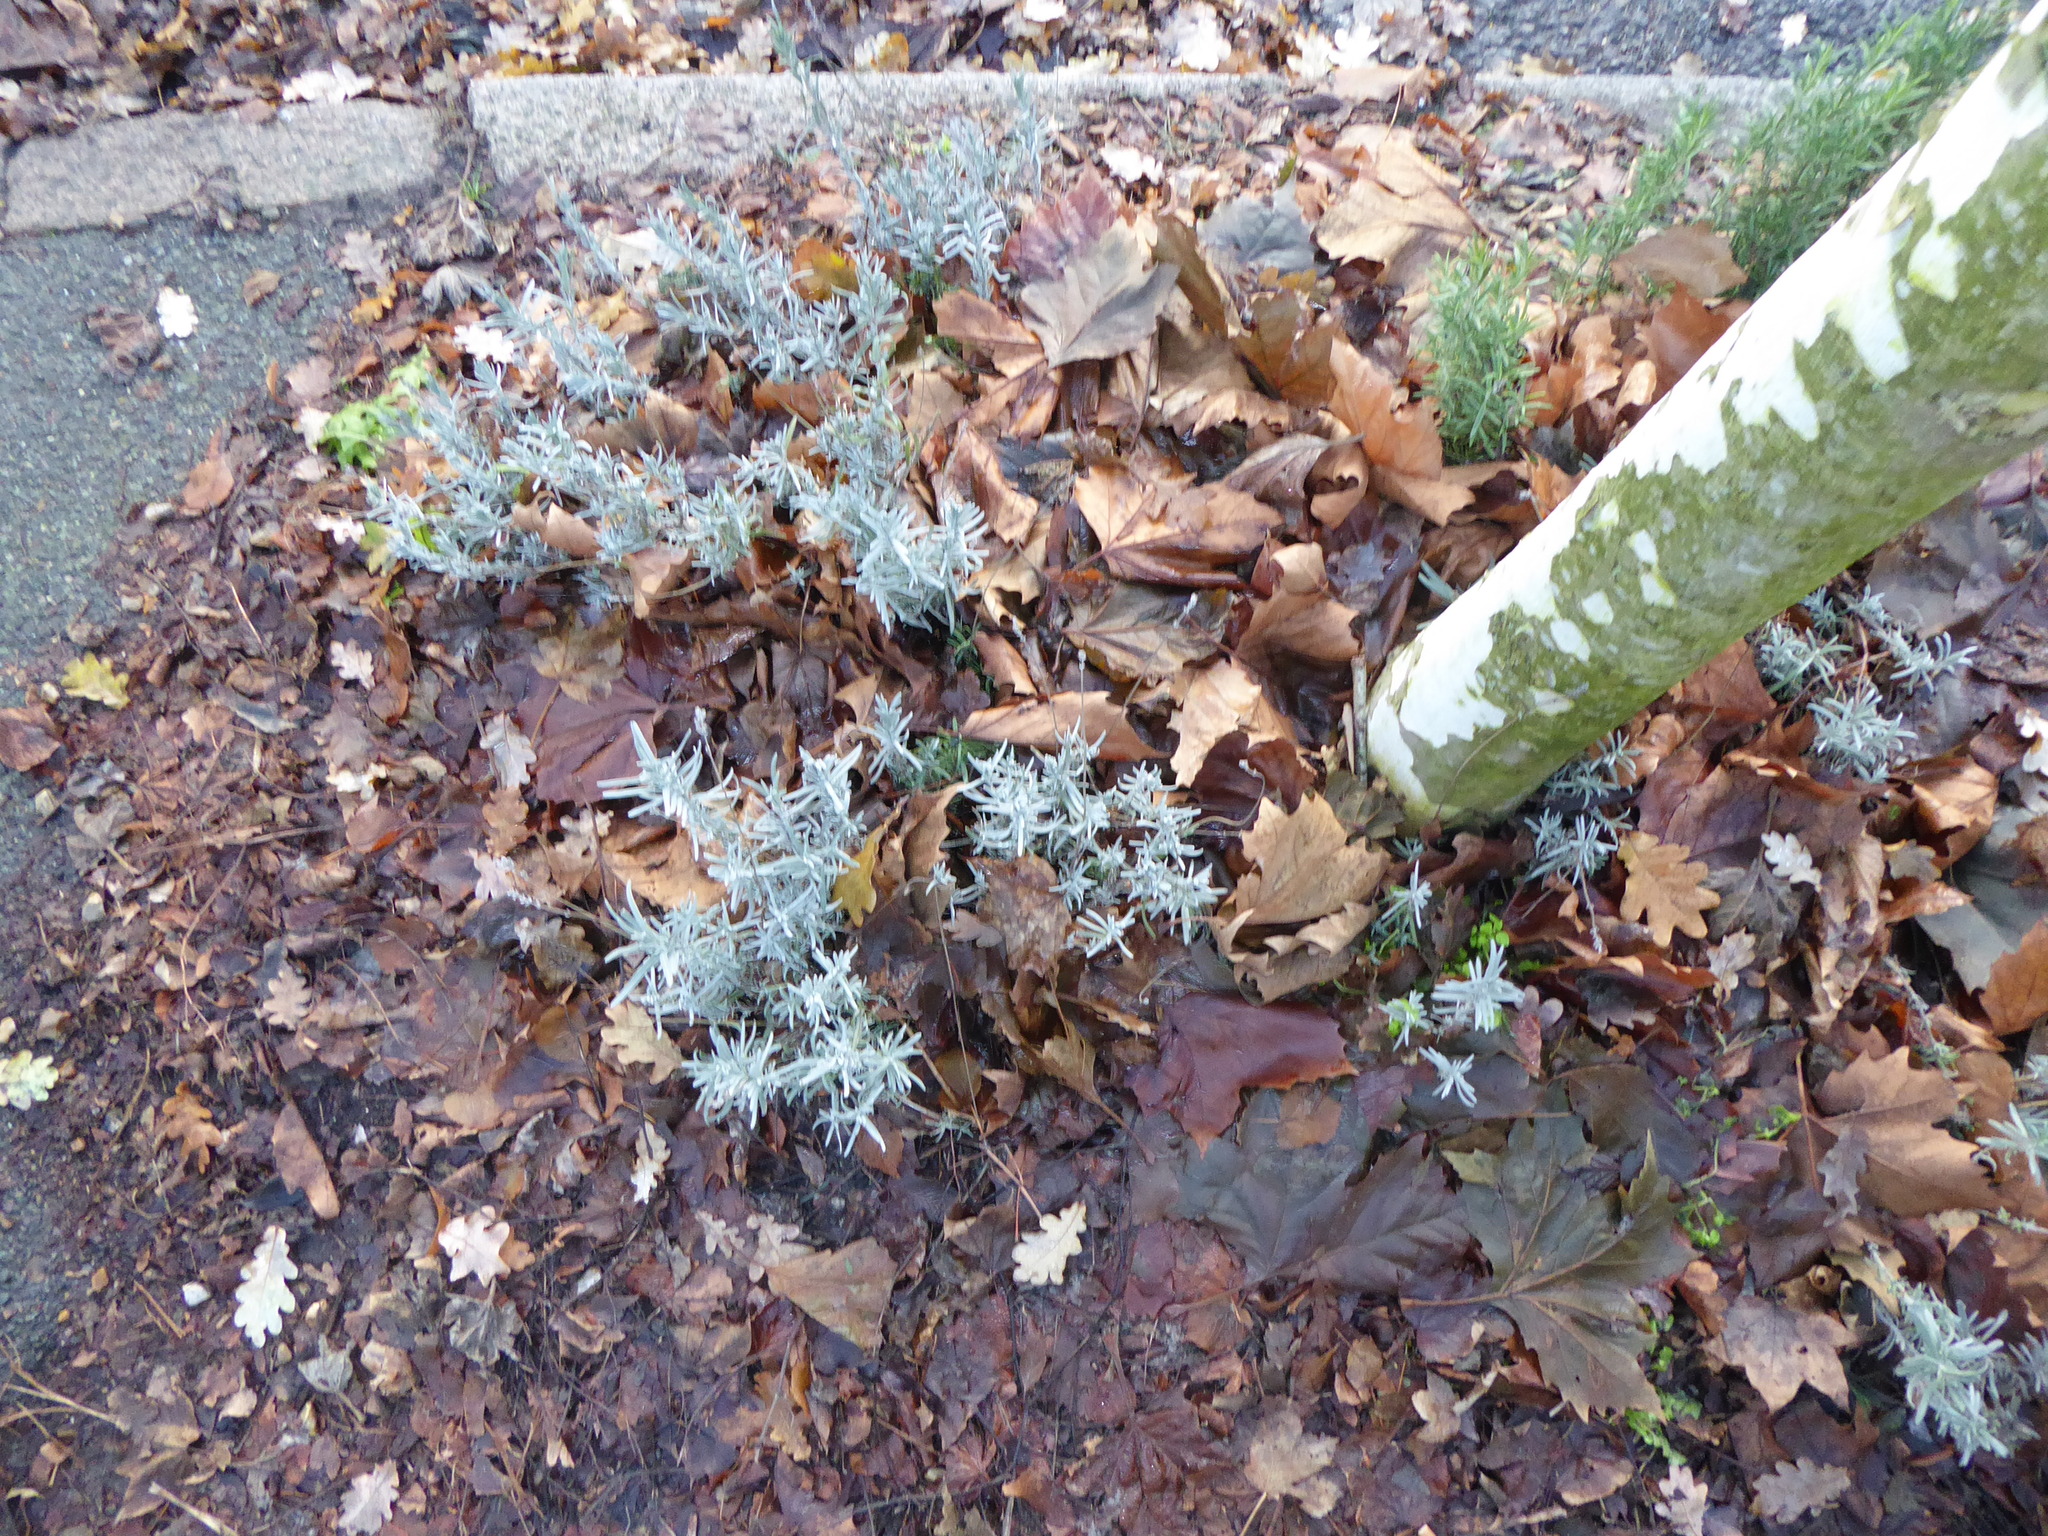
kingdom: Plantae
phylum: Tracheophyta
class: Magnoliopsida
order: Lamiales
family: Lamiaceae
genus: Lavandula
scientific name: Lavandula angustifolia
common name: Garden lavender
